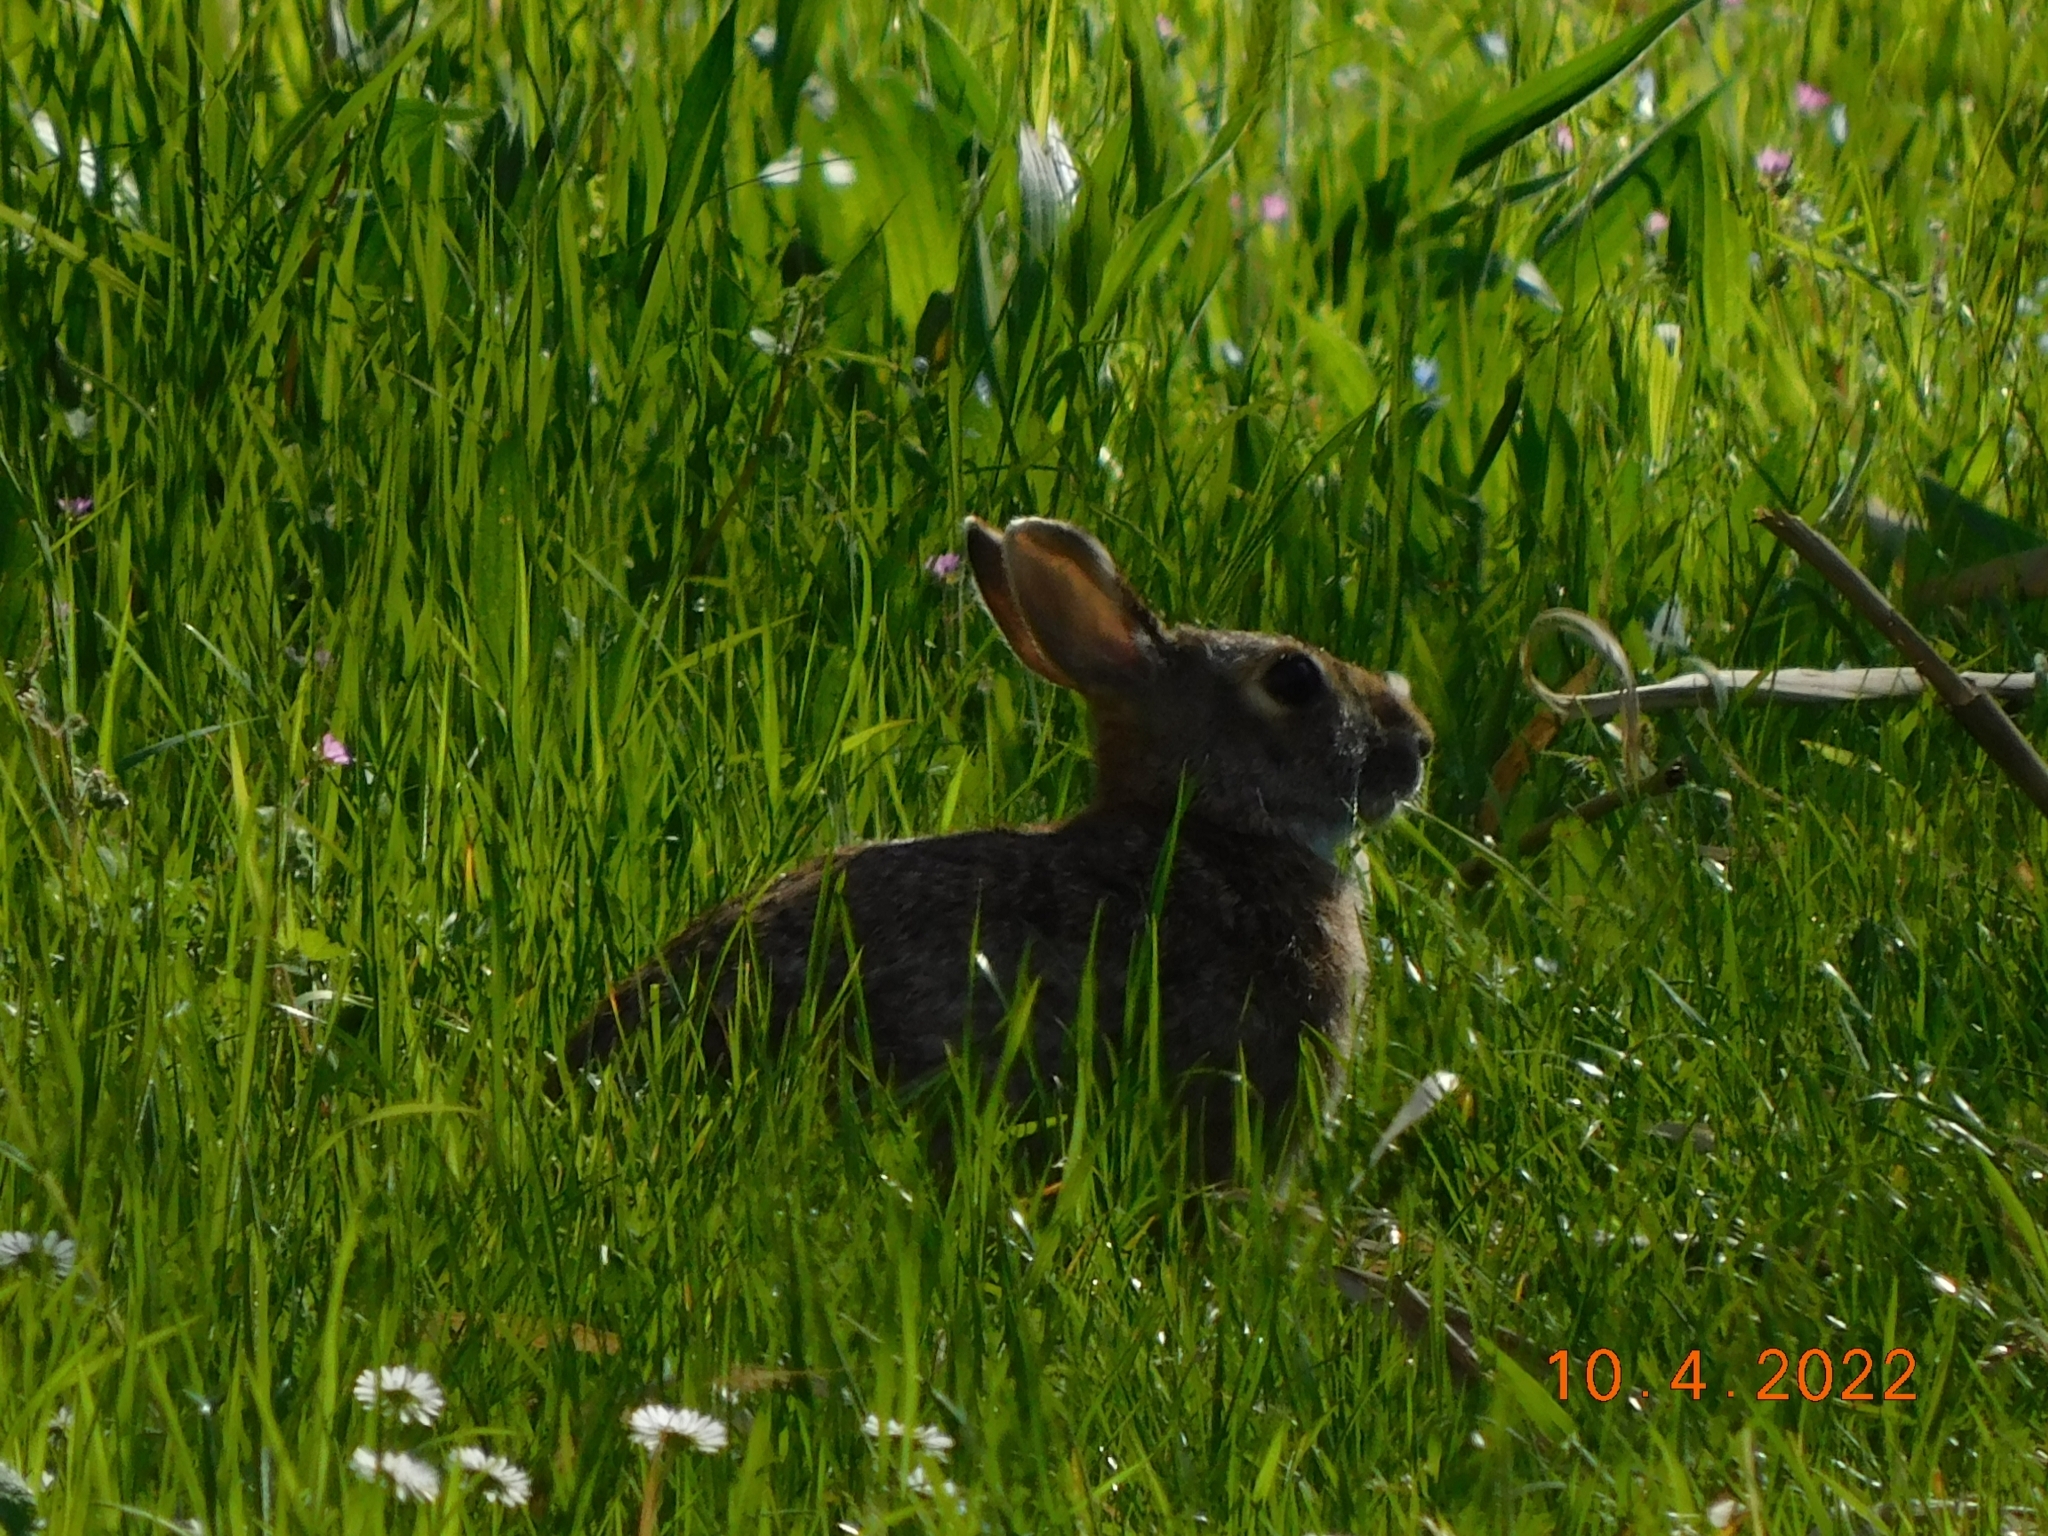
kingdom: Animalia
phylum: Chordata
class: Mammalia
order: Lagomorpha
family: Leporidae
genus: Sylvilagus
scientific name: Sylvilagus floridanus
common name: Eastern cottontail
